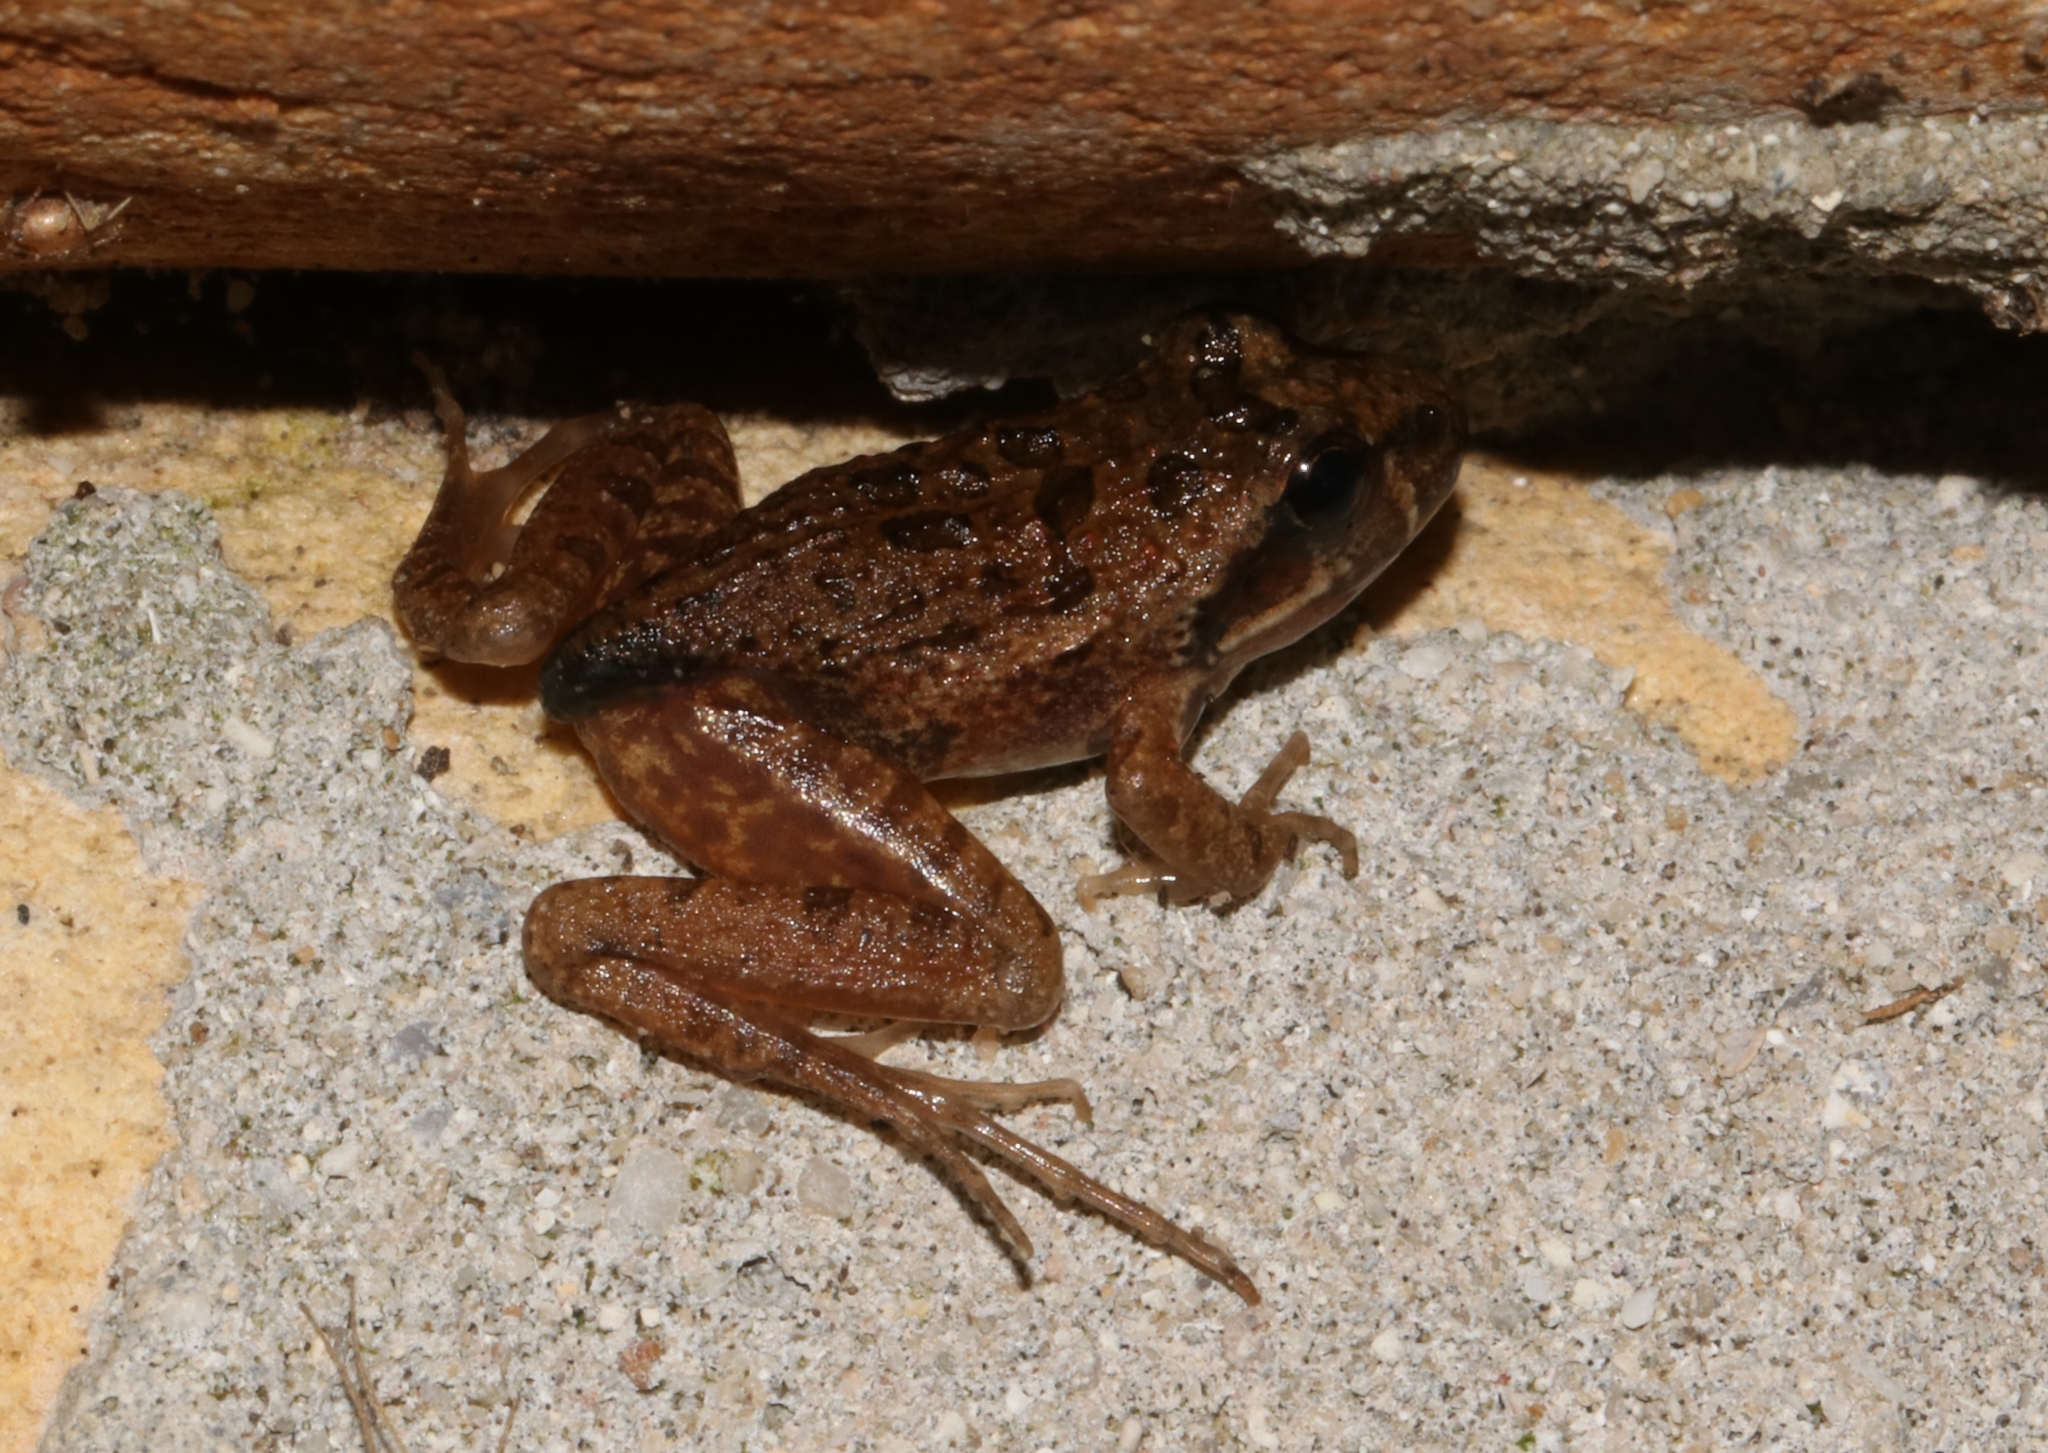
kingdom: Animalia
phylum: Chordata
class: Amphibia
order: Anura
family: Pyxicephalidae
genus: Strongylopus
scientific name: Strongylopus grayii
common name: Gray's stream frog
